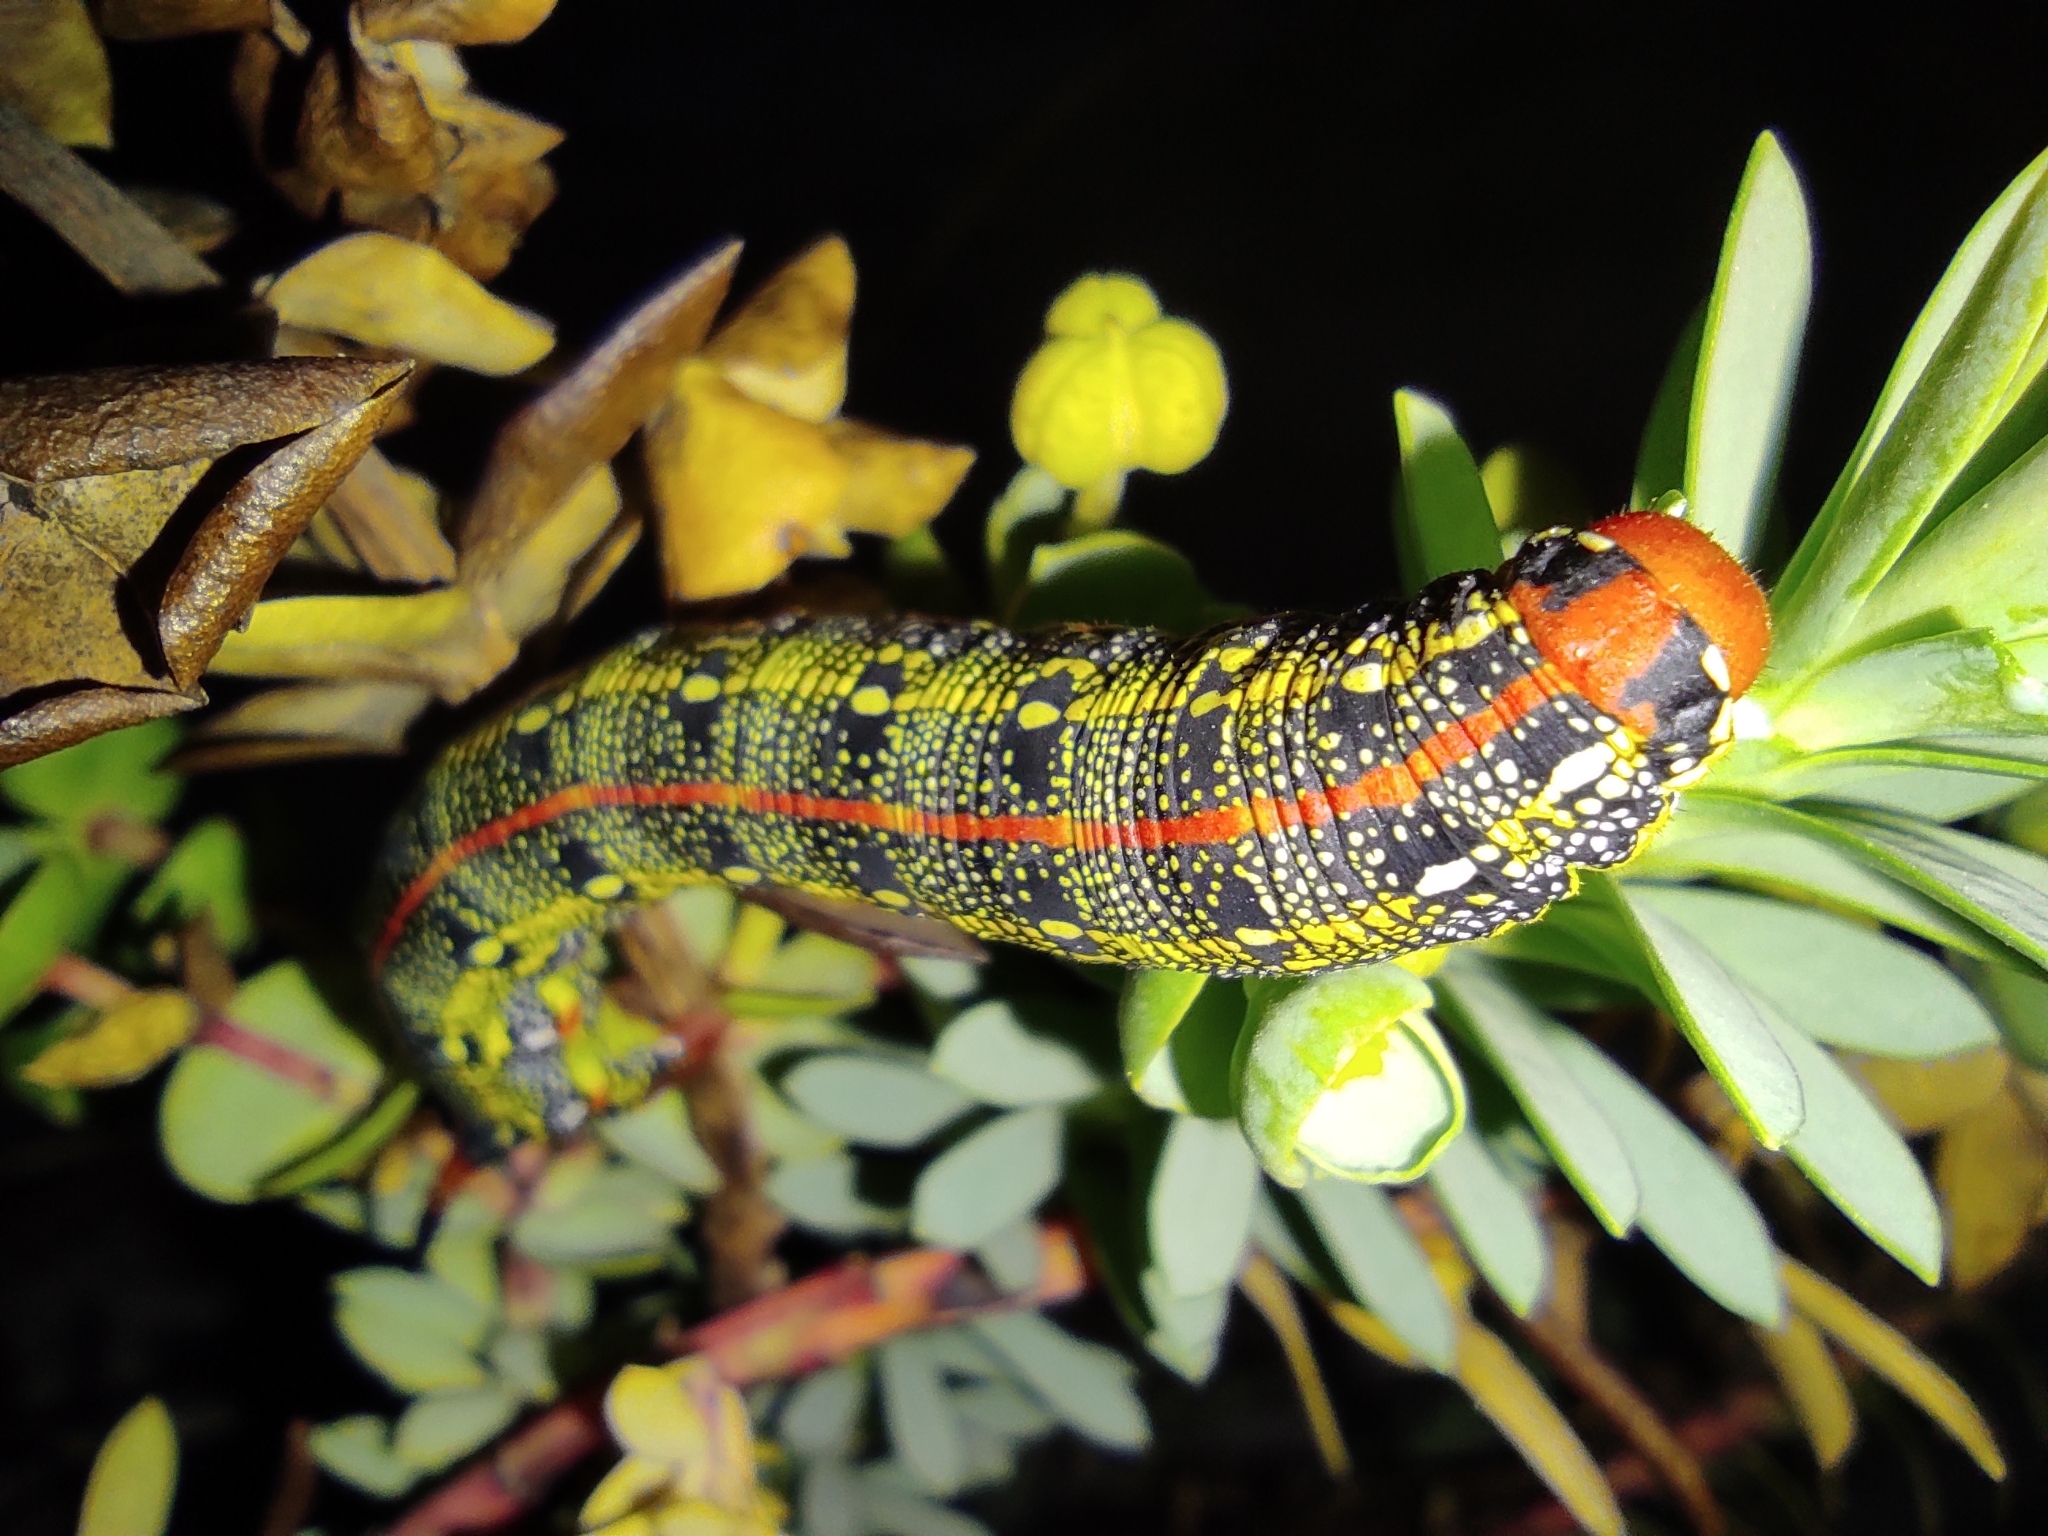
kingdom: Animalia
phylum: Arthropoda
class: Insecta
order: Lepidoptera
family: Sphingidae
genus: Hyles
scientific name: Hyles euphorbiae
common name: Spurge hawk-moth
